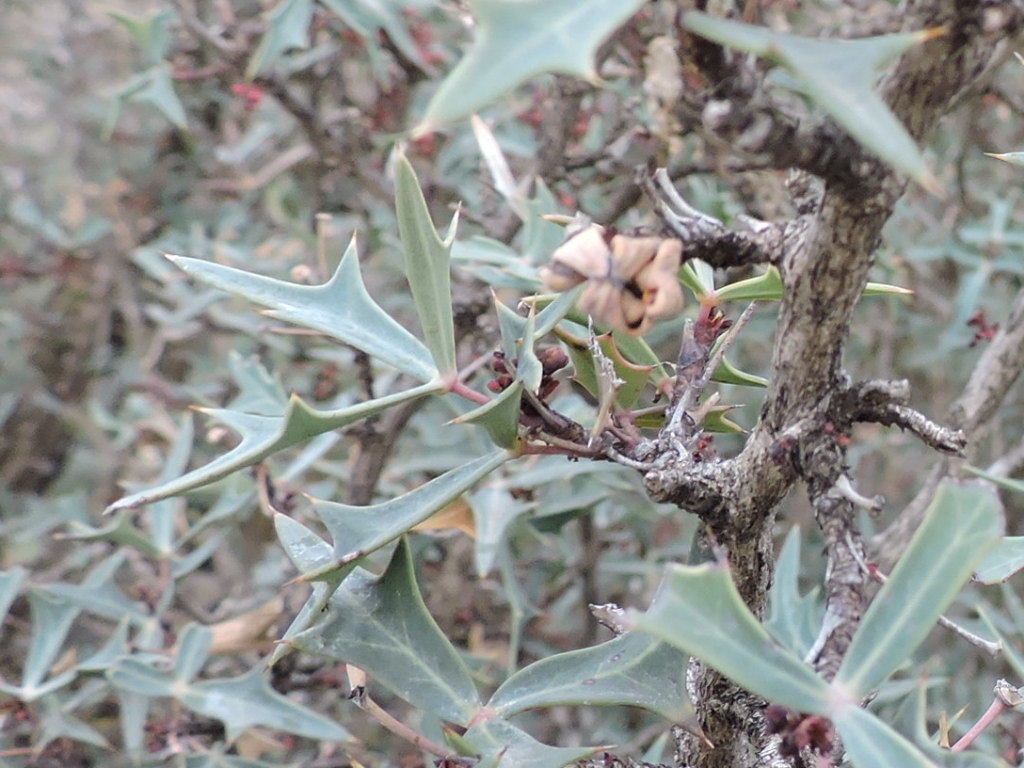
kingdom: Plantae
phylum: Tracheophyta
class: Magnoliopsida
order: Ranunculales
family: Berberidaceae
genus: Alloberberis
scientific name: Alloberberis trifoliolata
